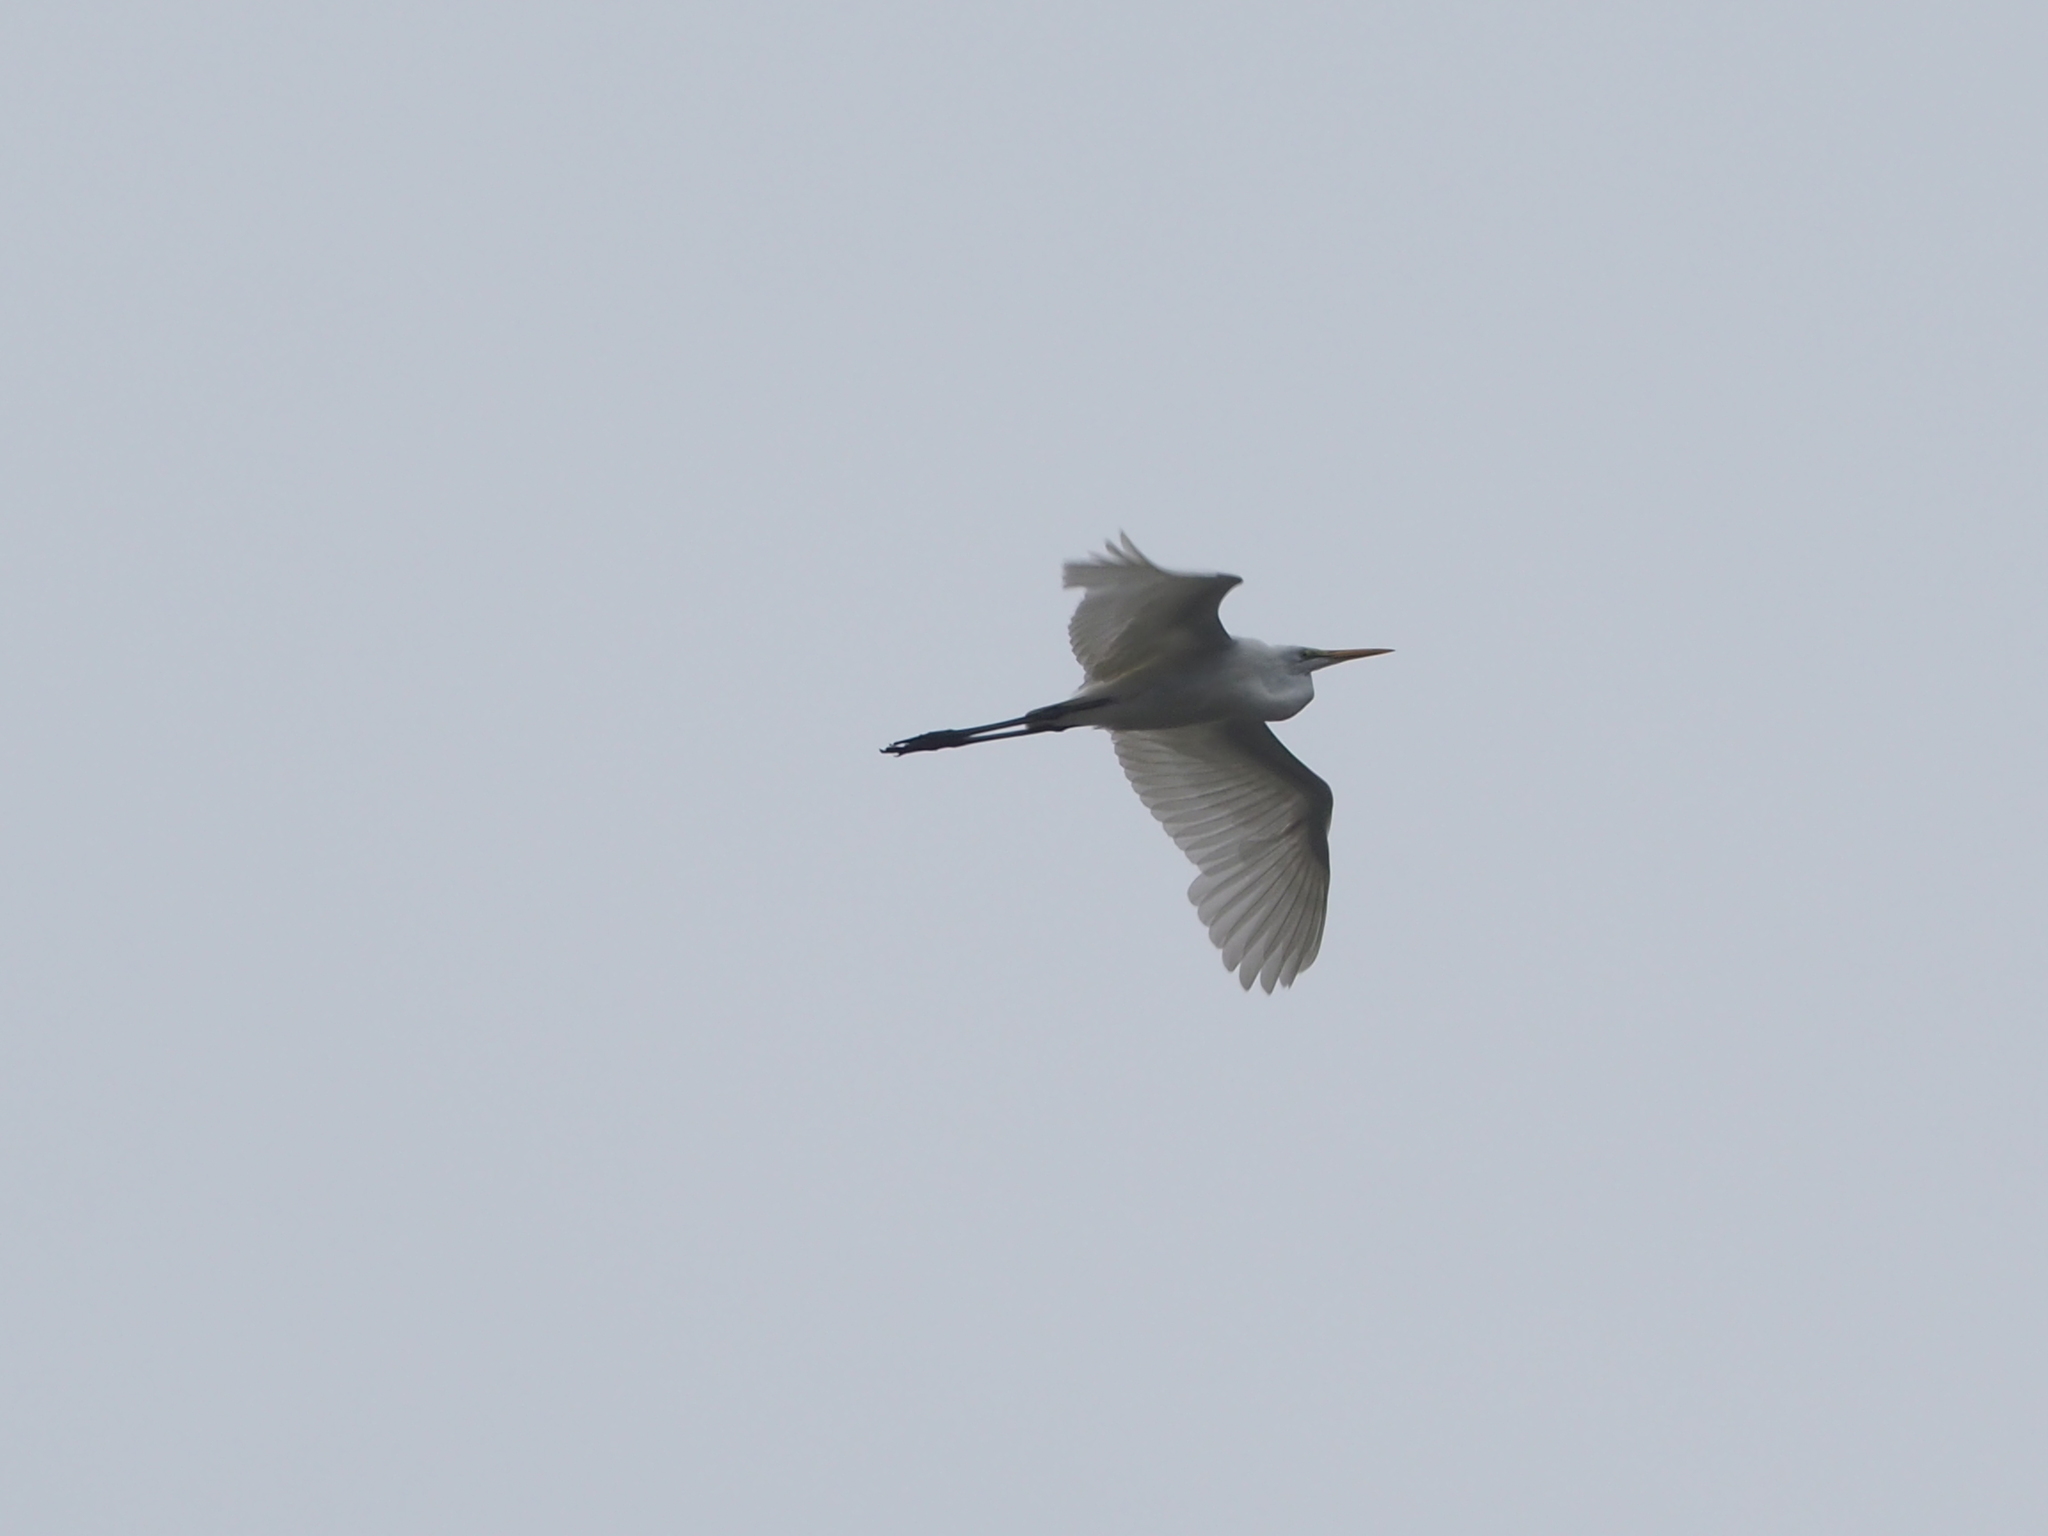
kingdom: Animalia
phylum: Chordata
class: Aves
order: Pelecaniformes
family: Ardeidae
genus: Ardea
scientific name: Ardea alba
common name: Great egret
